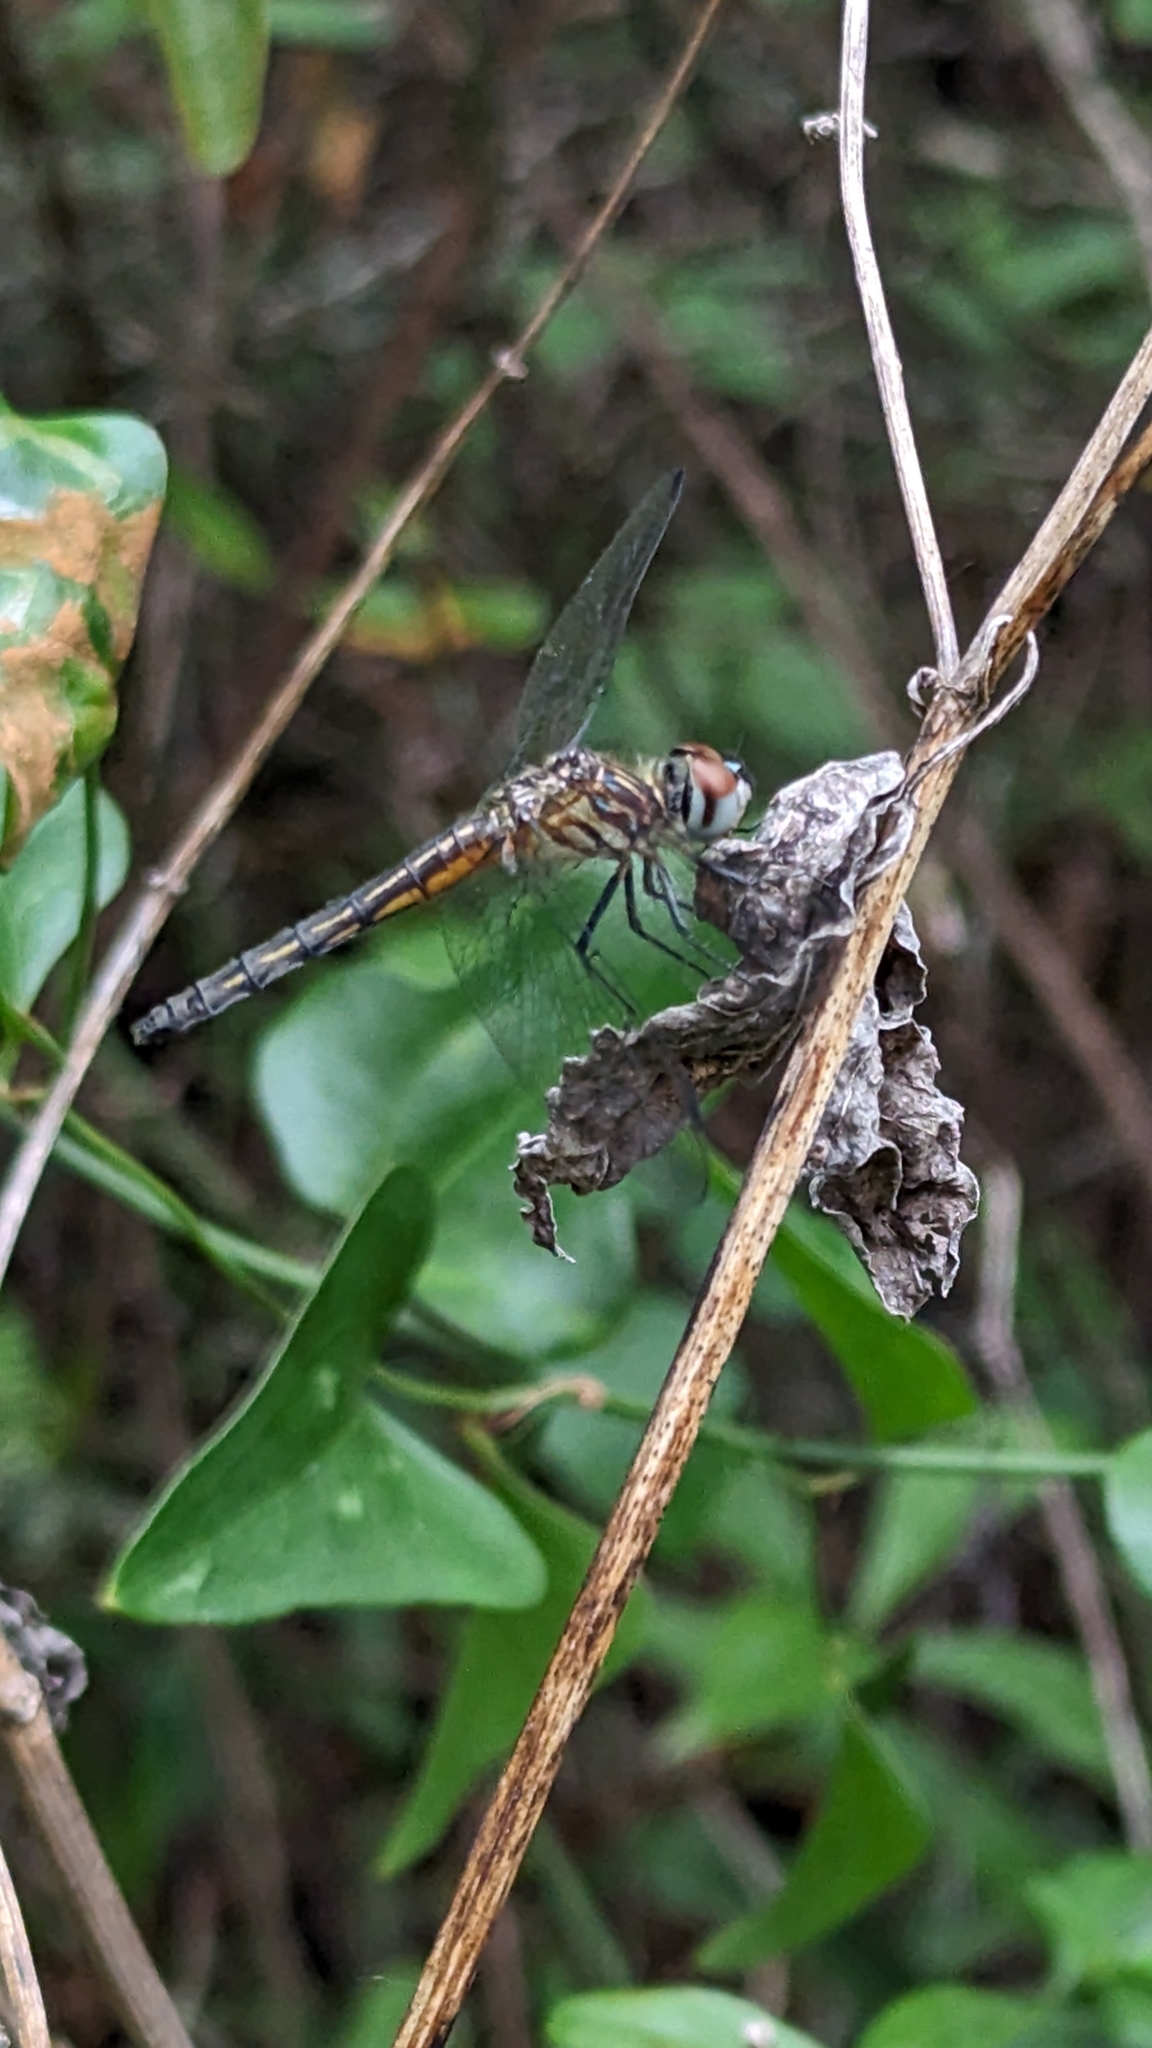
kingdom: Animalia
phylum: Arthropoda
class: Insecta
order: Odonata
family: Libellulidae
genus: Pachydiplax
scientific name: Pachydiplax longipennis
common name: Blue dasher
